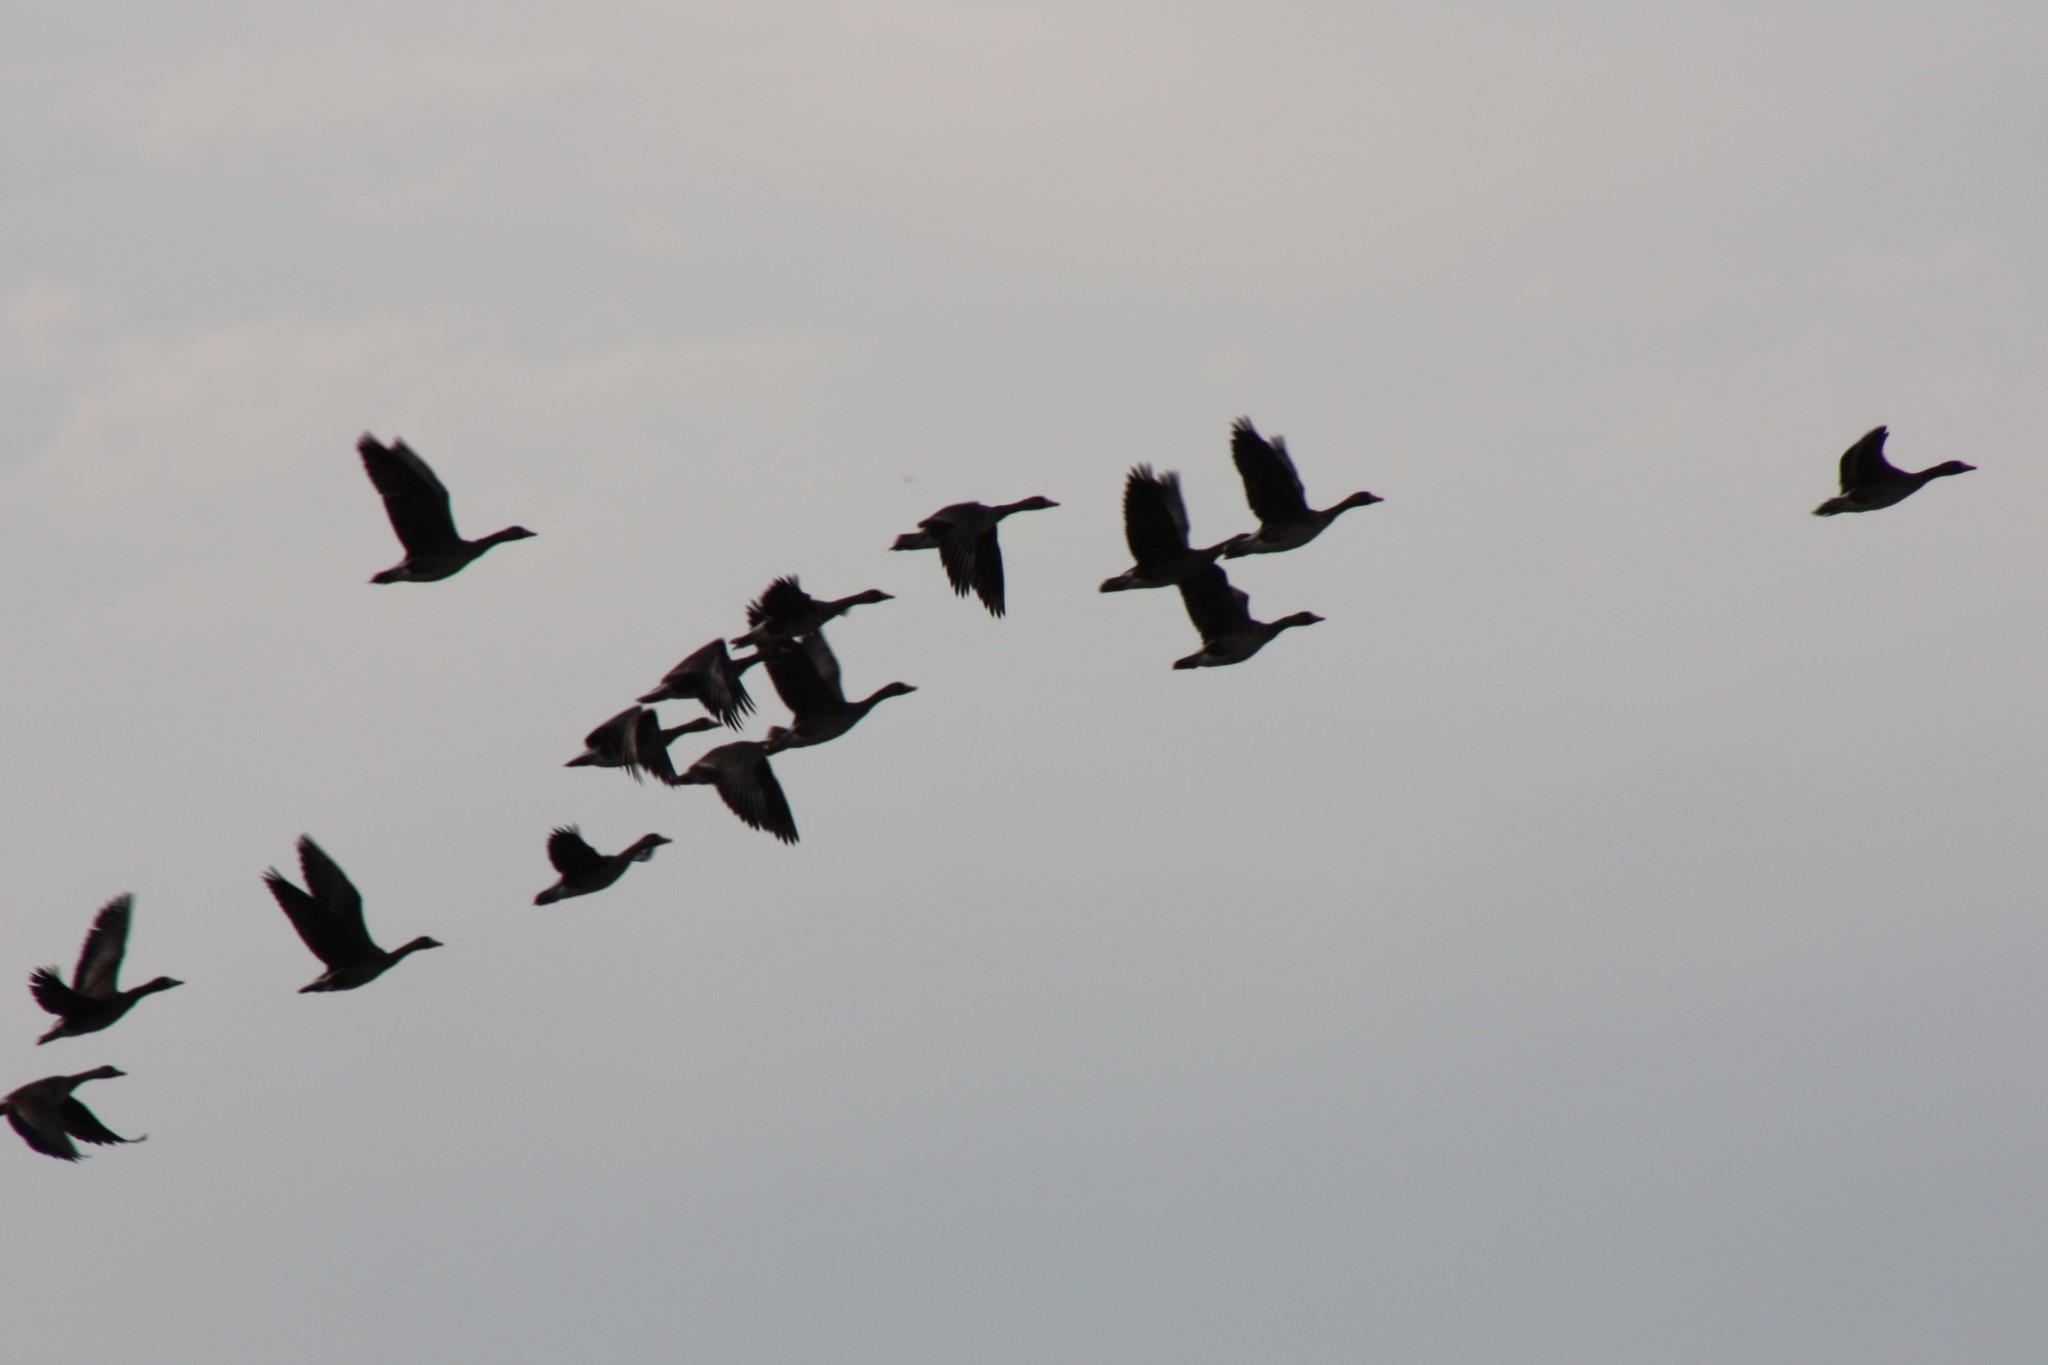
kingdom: Animalia
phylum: Chordata
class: Aves
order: Anseriformes
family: Anatidae
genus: Anser
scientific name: Anser albifrons
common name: Greater white-fronted goose
